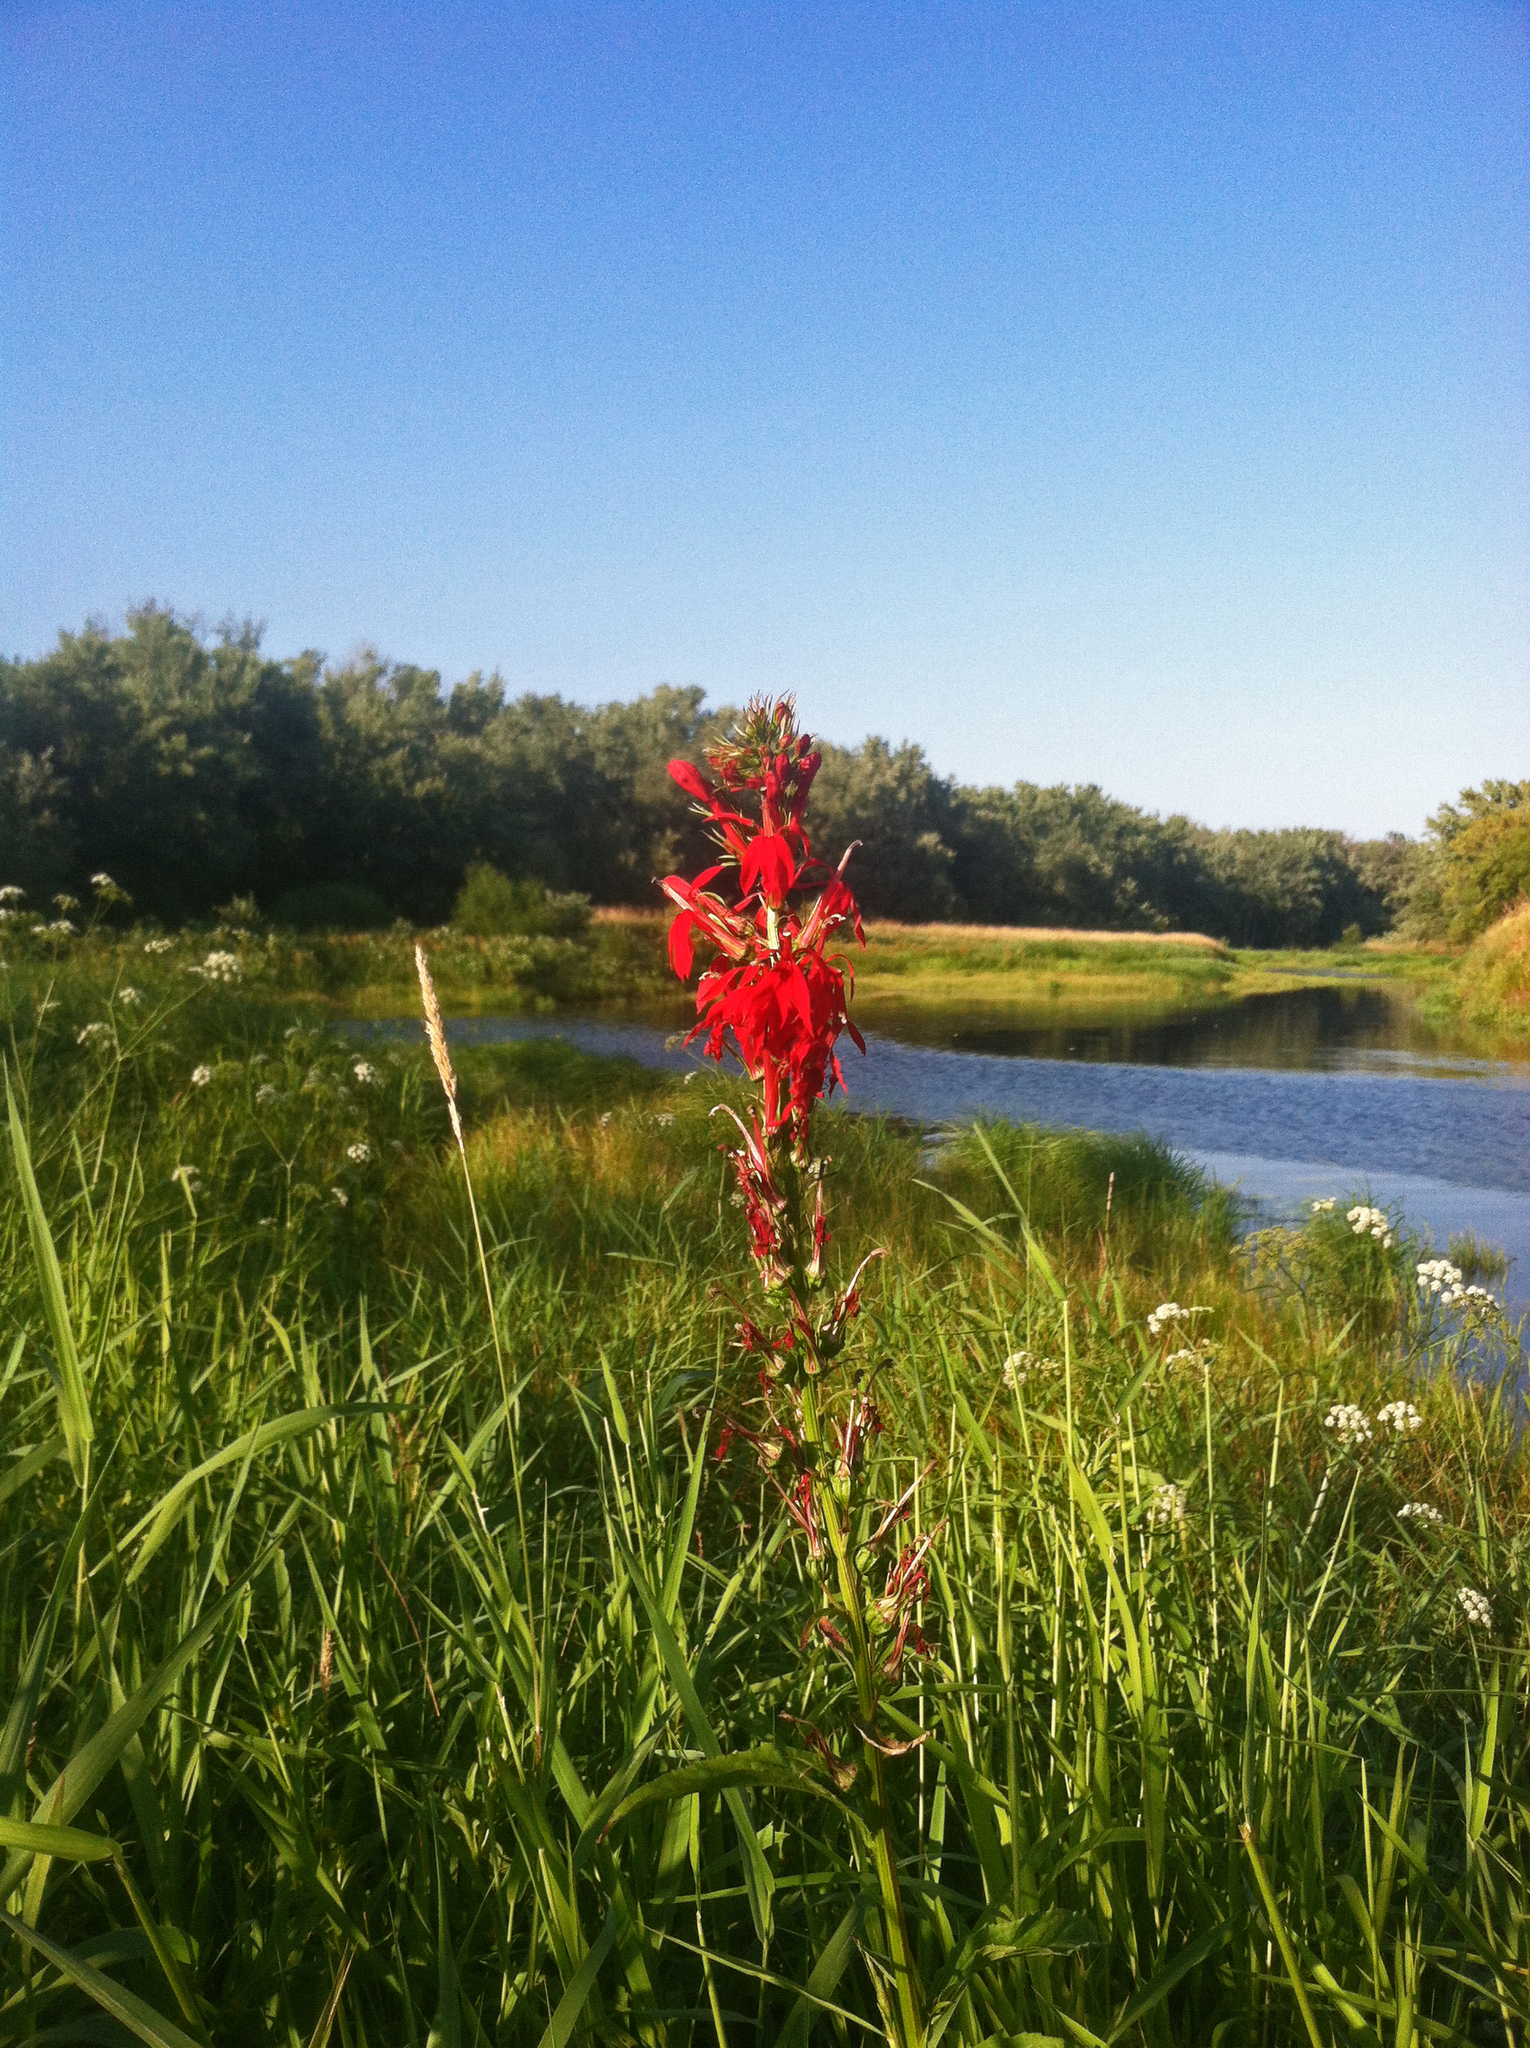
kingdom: Plantae
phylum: Tracheophyta
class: Magnoliopsida
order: Asterales
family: Campanulaceae
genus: Lobelia
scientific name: Lobelia cardinalis
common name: Cardinal flower
